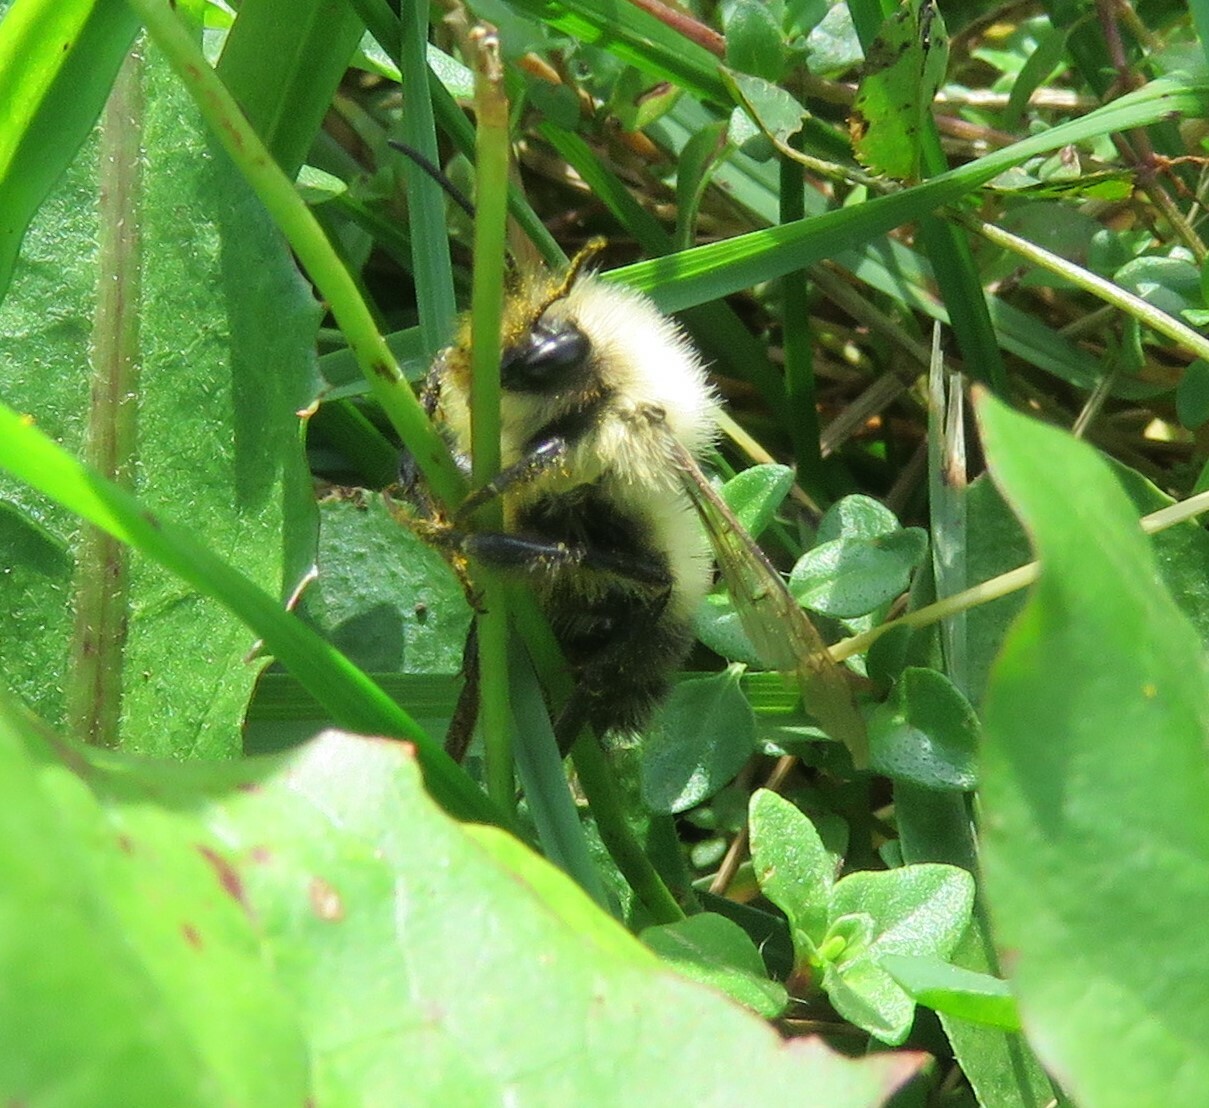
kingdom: Animalia
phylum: Arthropoda
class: Insecta
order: Hymenoptera
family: Apidae
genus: Pyrobombus
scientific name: Pyrobombus
